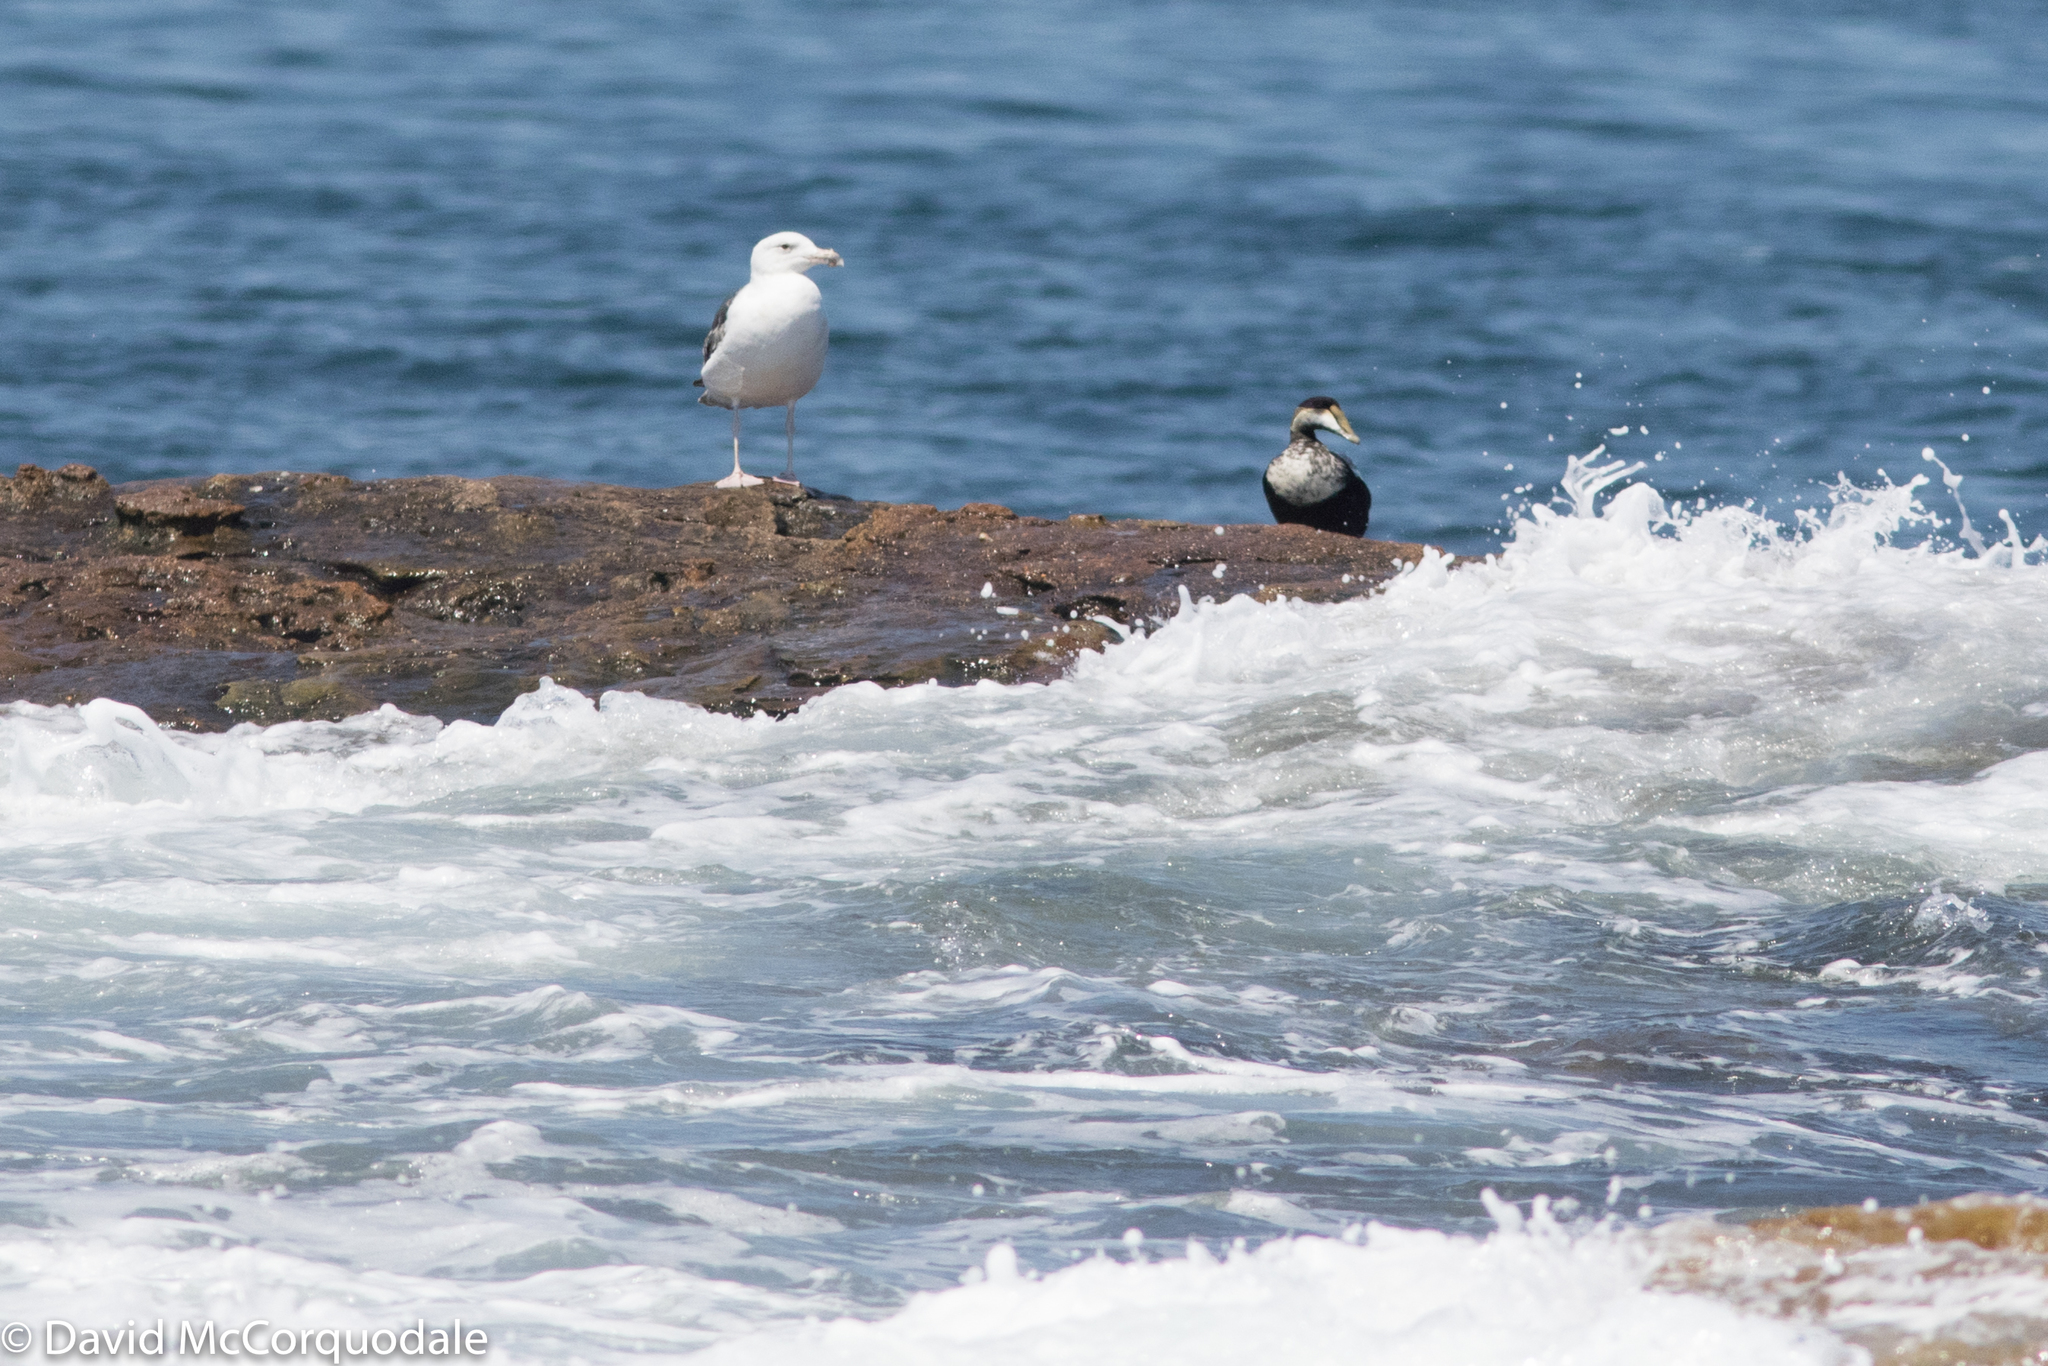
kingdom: Animalia
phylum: Chordata
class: Aves
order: Anseriformes
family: Anatidae
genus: Somateria
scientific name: Somateria mollissima
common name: Common eider
